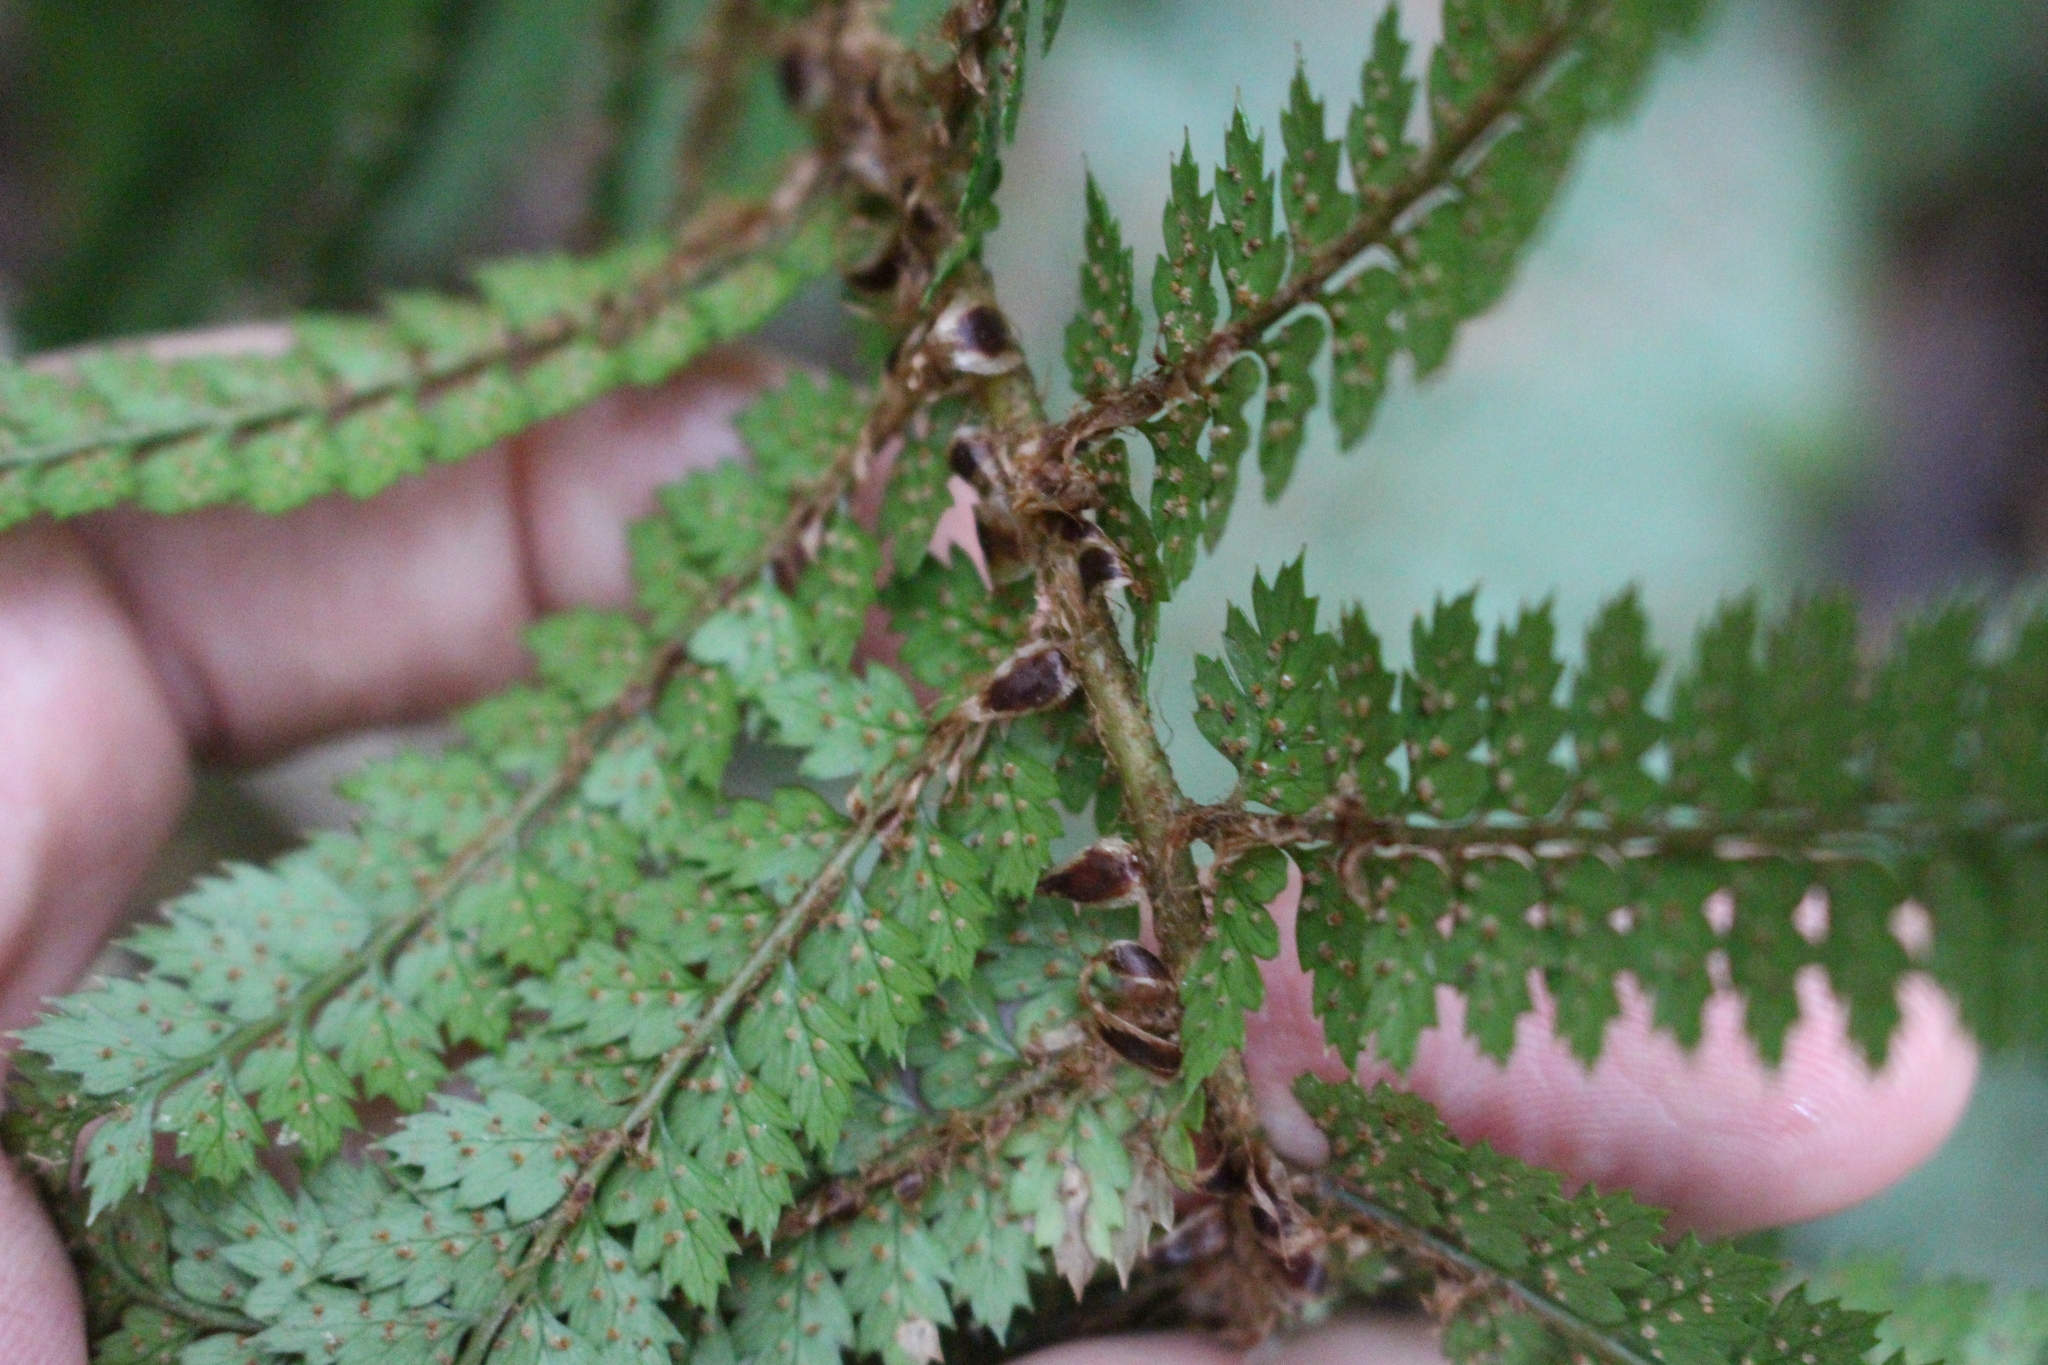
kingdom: Plantae
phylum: Tracheophyta
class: Polypodiopsida
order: Polypodiales
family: Dryopteridaceae
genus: Polystichum
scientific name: Polystichum vestitum
